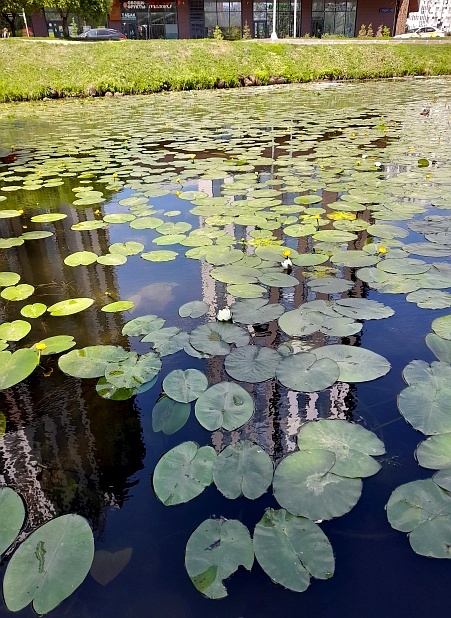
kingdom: Plantae
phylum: Tracheophyta
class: Magnoliopsida
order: Nymphaeales
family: Nymphaeaceae
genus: Nymphaea
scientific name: Nymphaea candida
